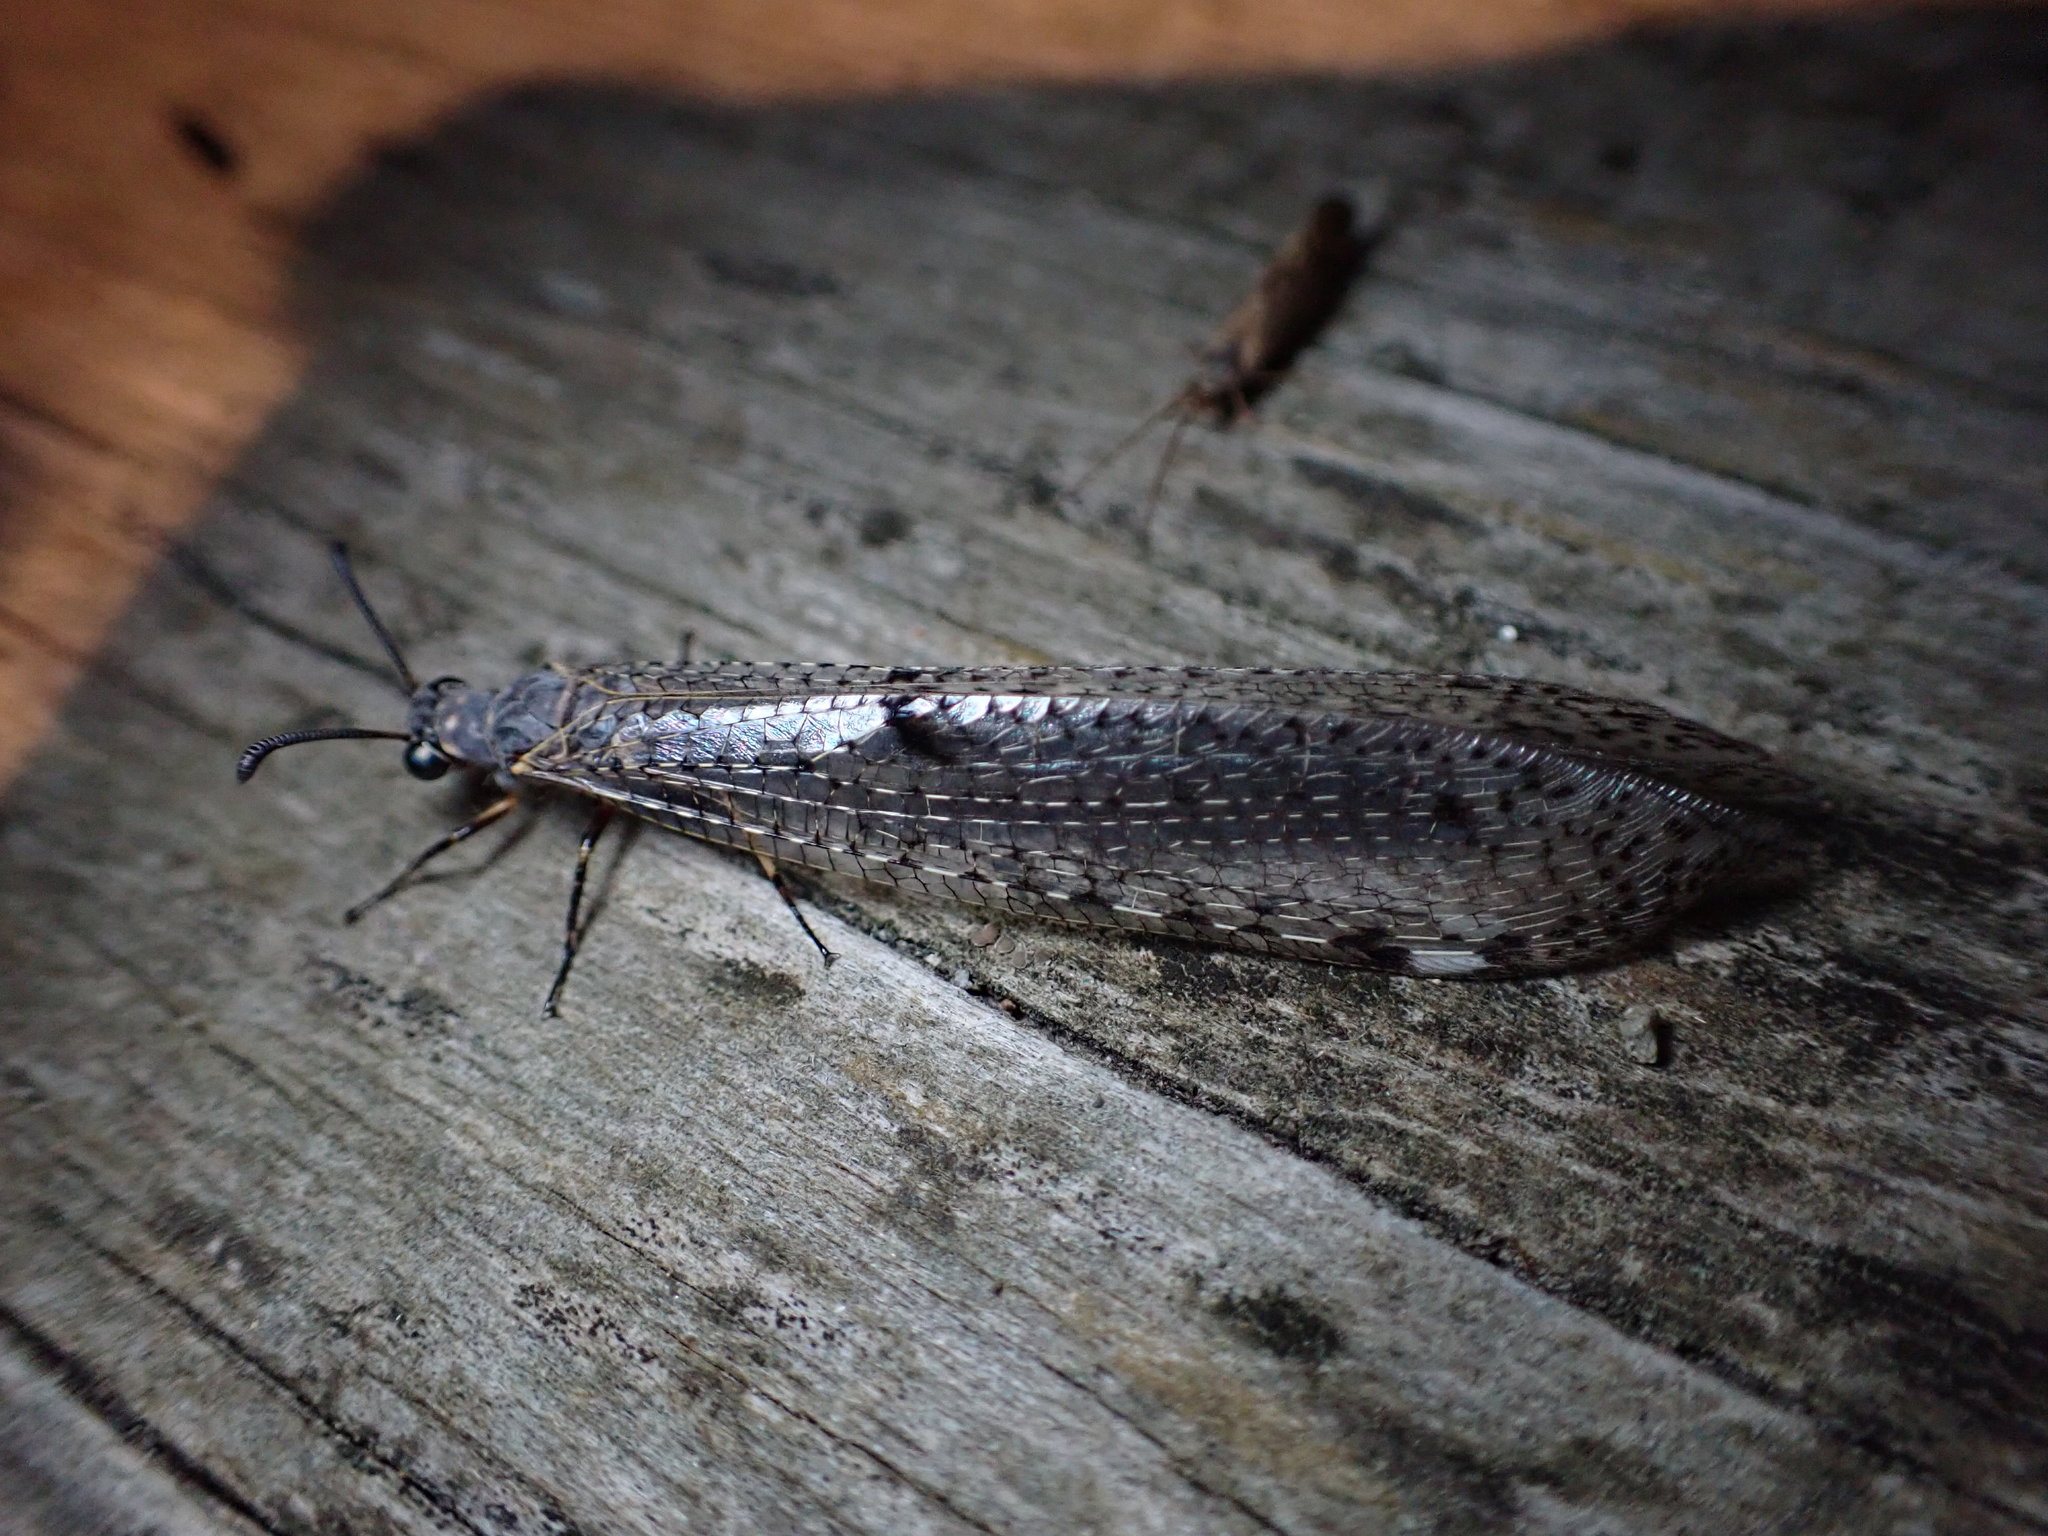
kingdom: Animalia
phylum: Arthropoda
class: Insecta
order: Neuroptera
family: Myrmeleontidae
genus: Weeleus
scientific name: Weeleus acutus
